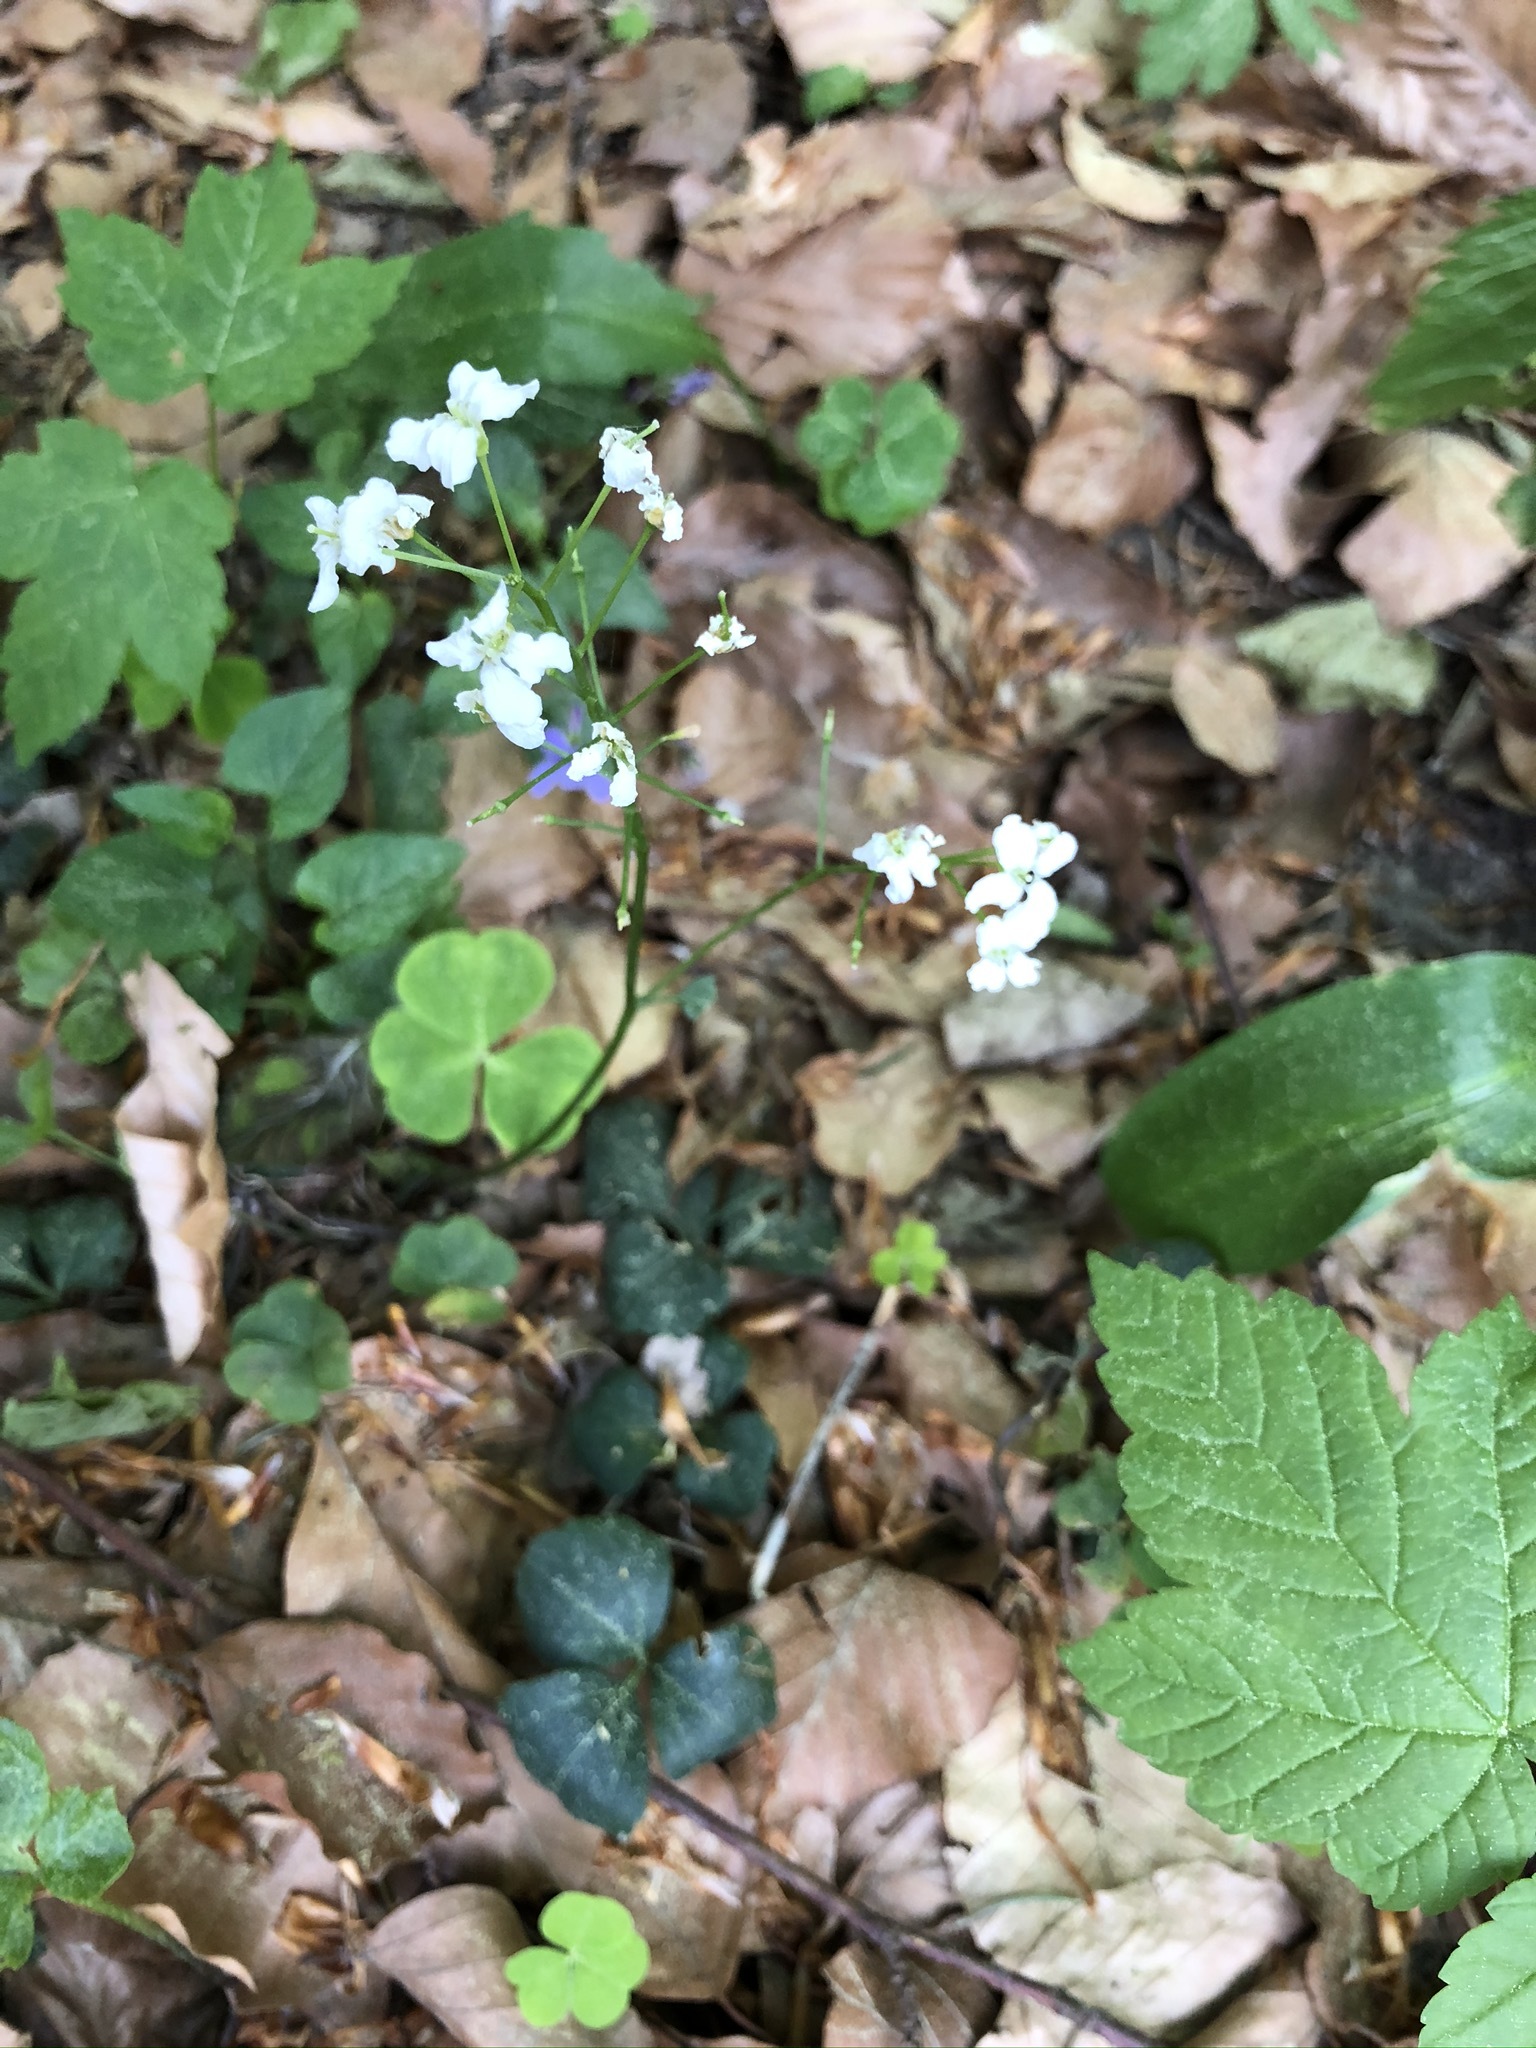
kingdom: Plantae
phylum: Tracheophyta
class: Magnoliopsida
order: Brassicales
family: Brassicaceae
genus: Cardamine
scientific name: Cardamine trifolia
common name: Trefoil cress
